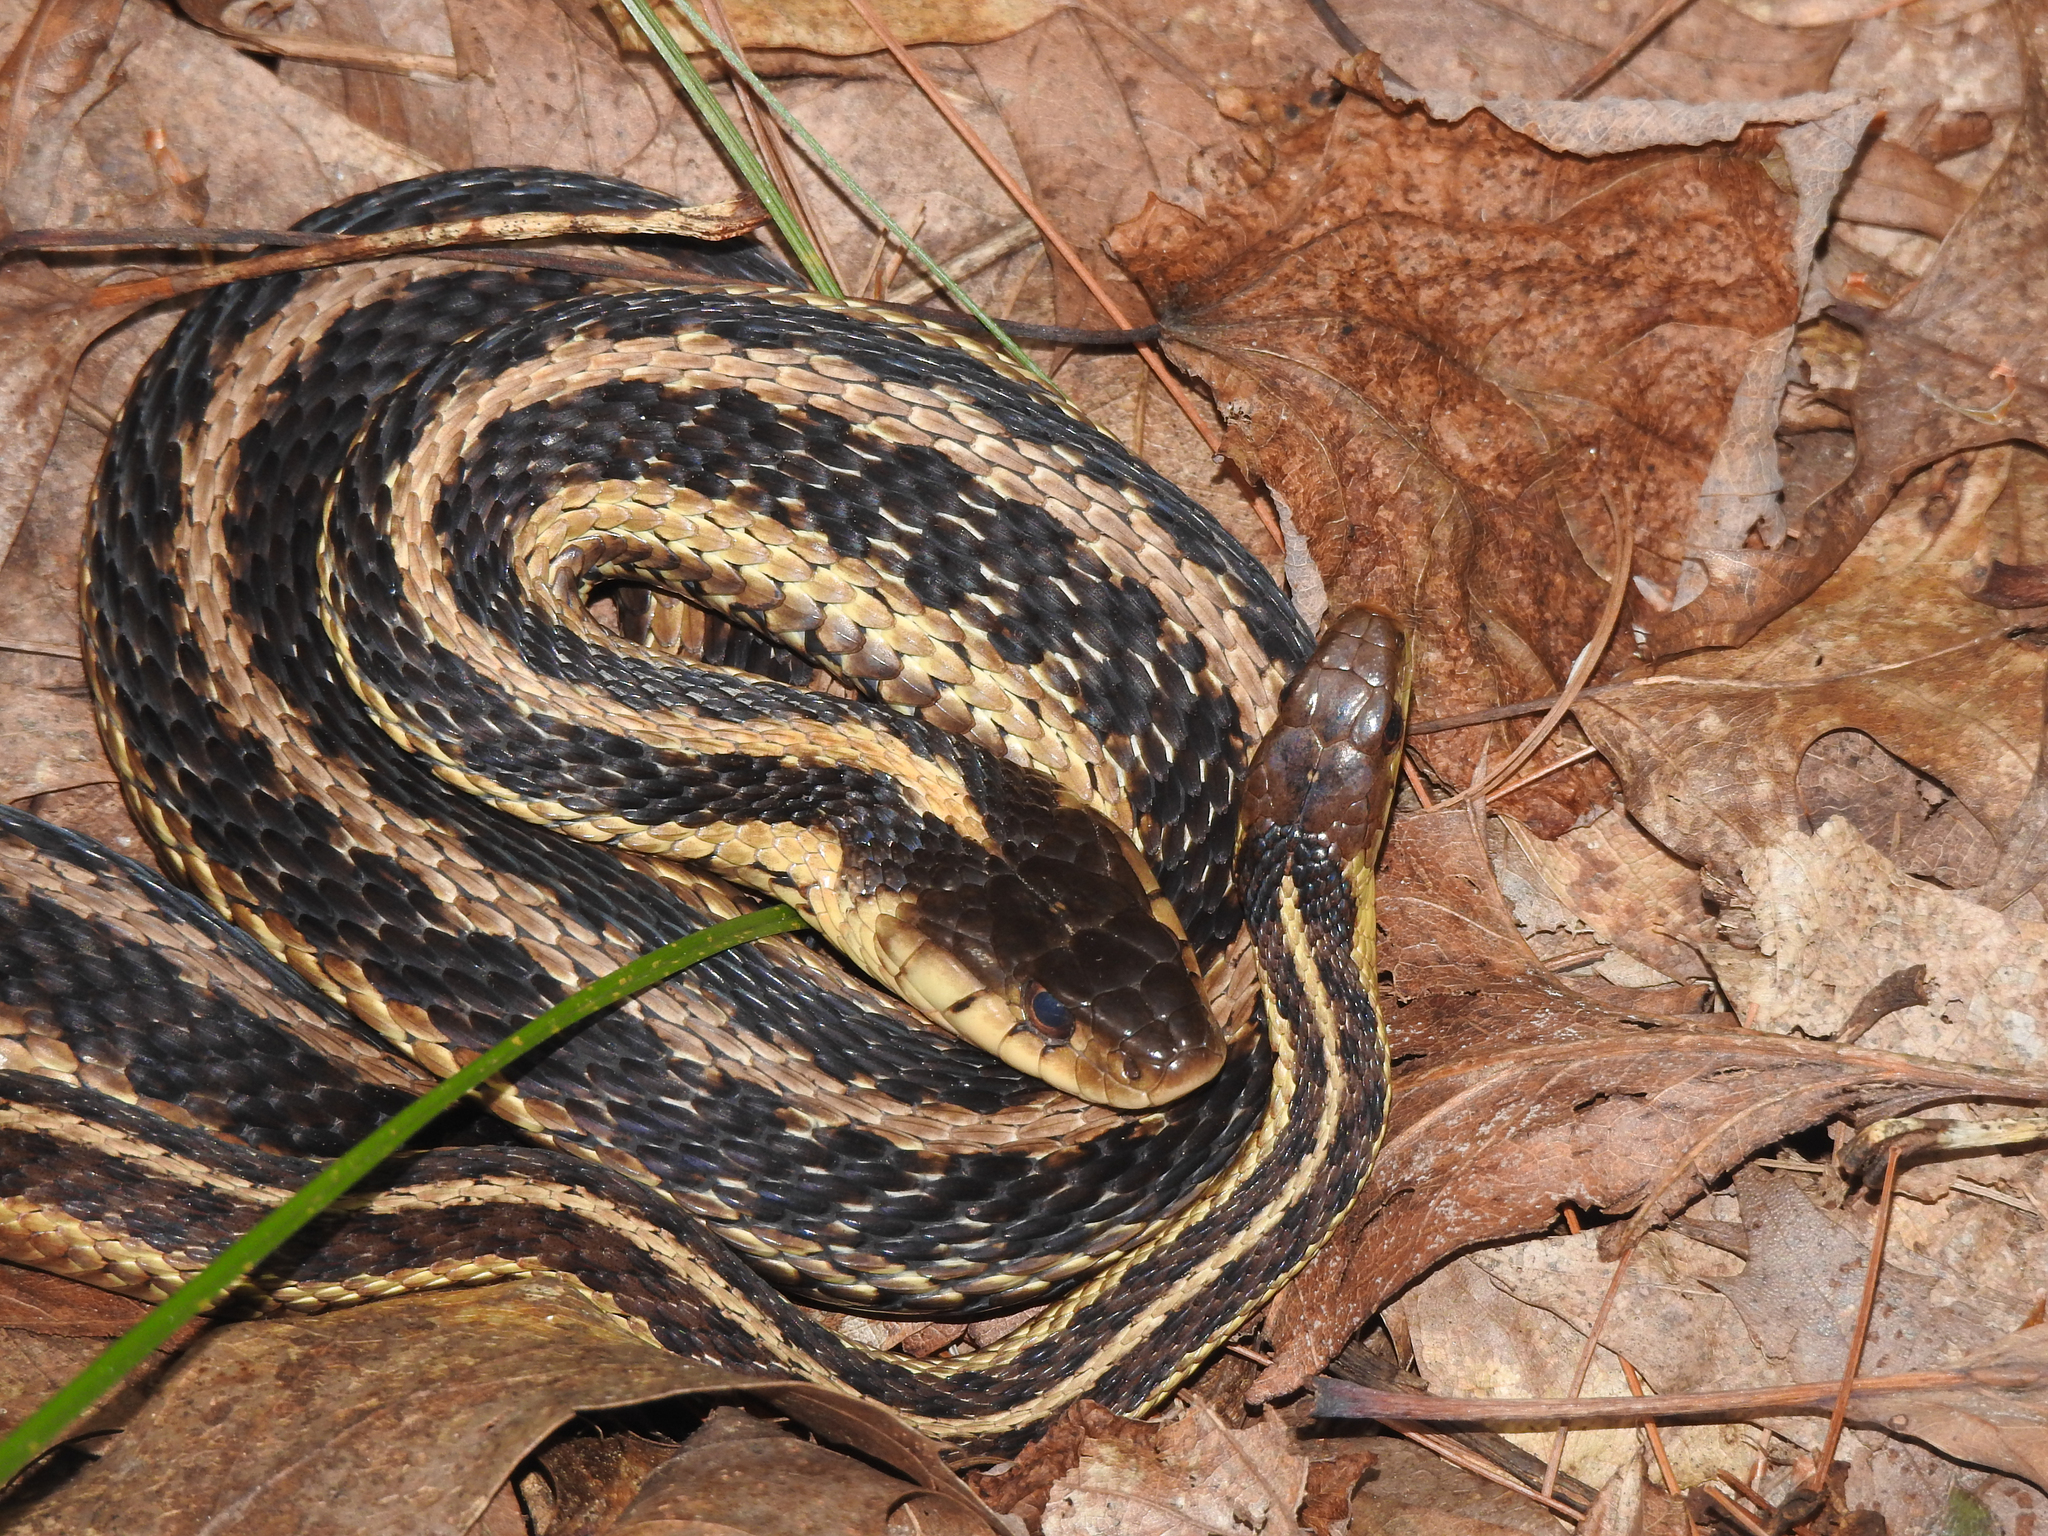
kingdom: Animalia
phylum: Chordata
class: Squamata
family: Colubridae
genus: Thamnophis
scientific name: Thamnophis sirtalis
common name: Common garter snake
